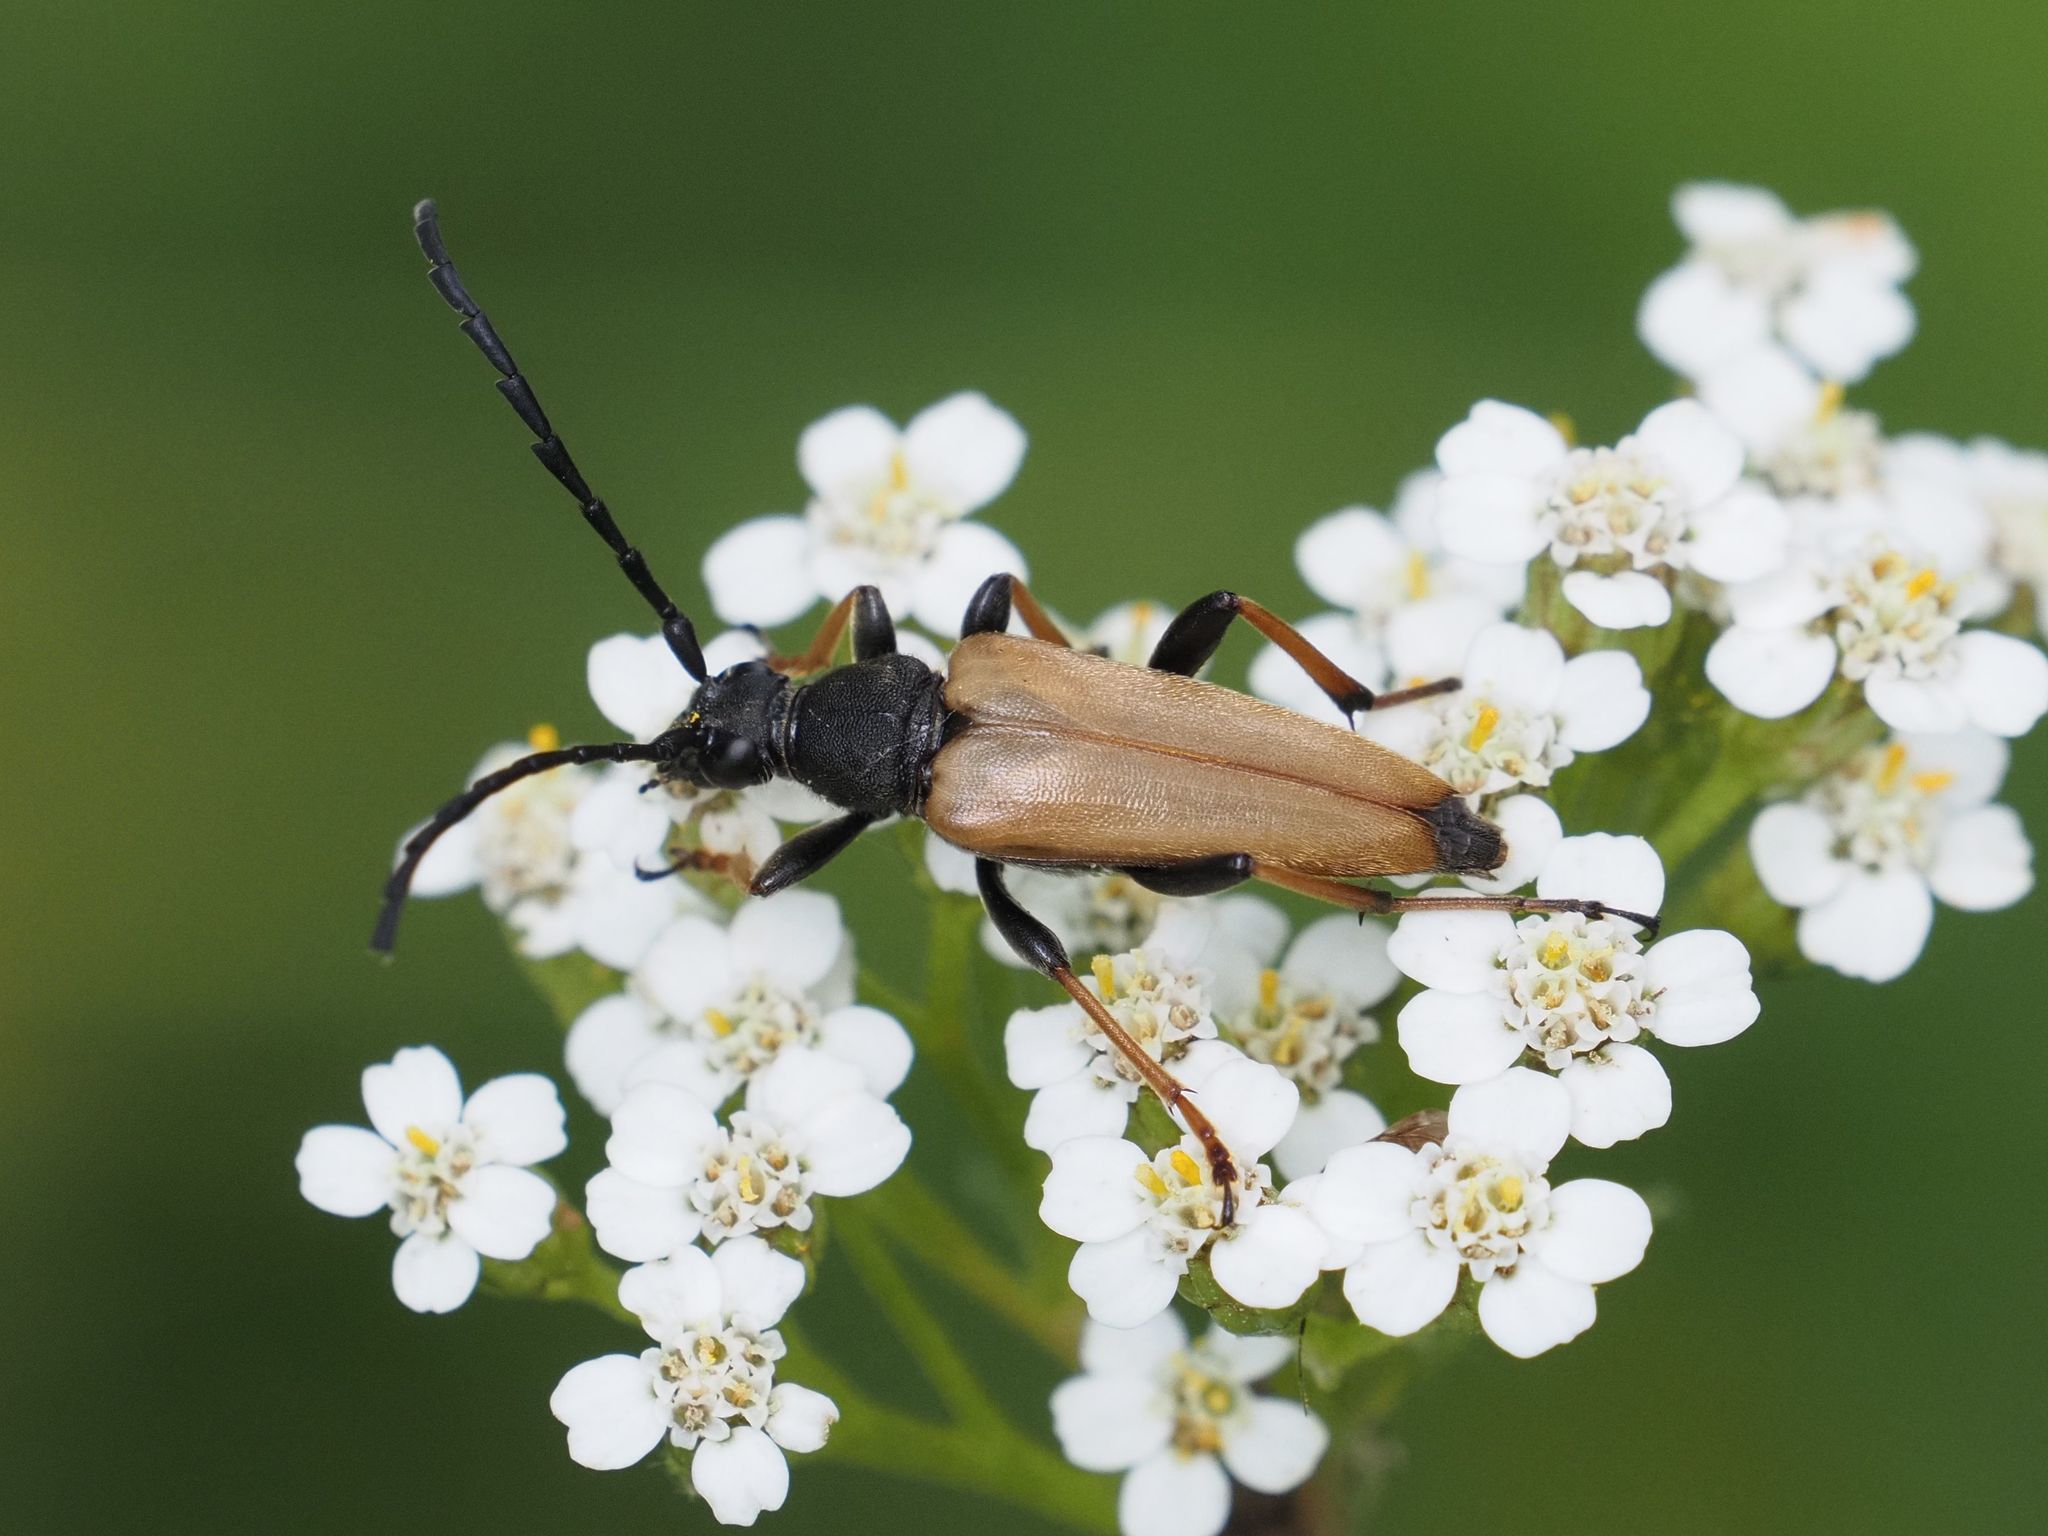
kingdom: Animalia
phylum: Arthropoda
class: Insecta
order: Coleoptera
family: Cerambycidae
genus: Stictoleptura
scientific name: Stictoleptura rubra
